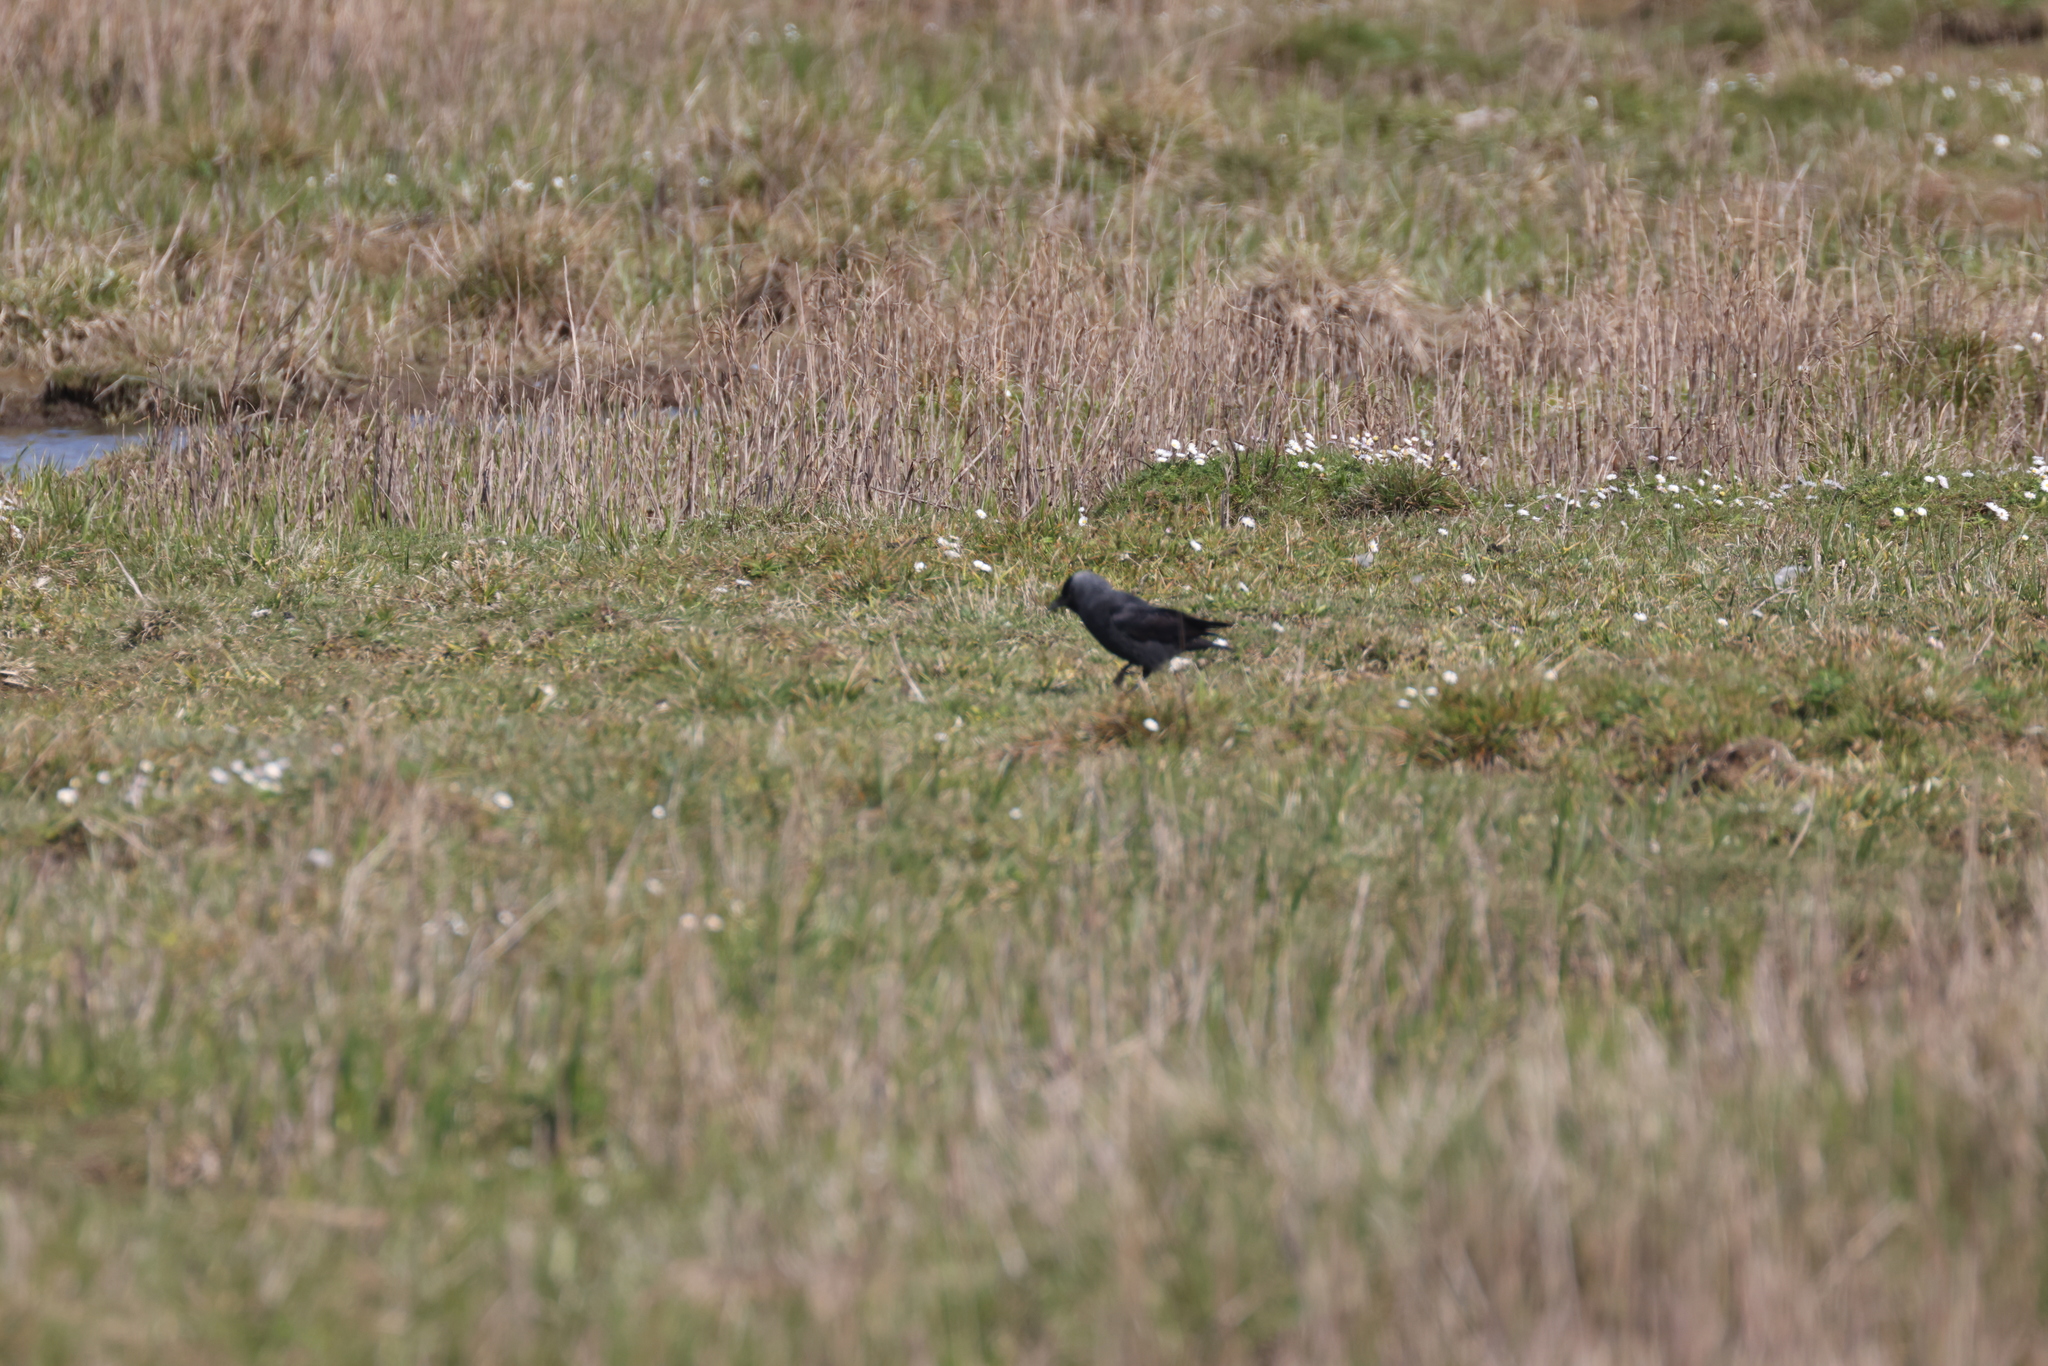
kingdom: Animalia
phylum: Chordata
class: Aves
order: Passeriformes
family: Corvidae
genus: Coloeus
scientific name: Coloeus monedula
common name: Western jackdaw
